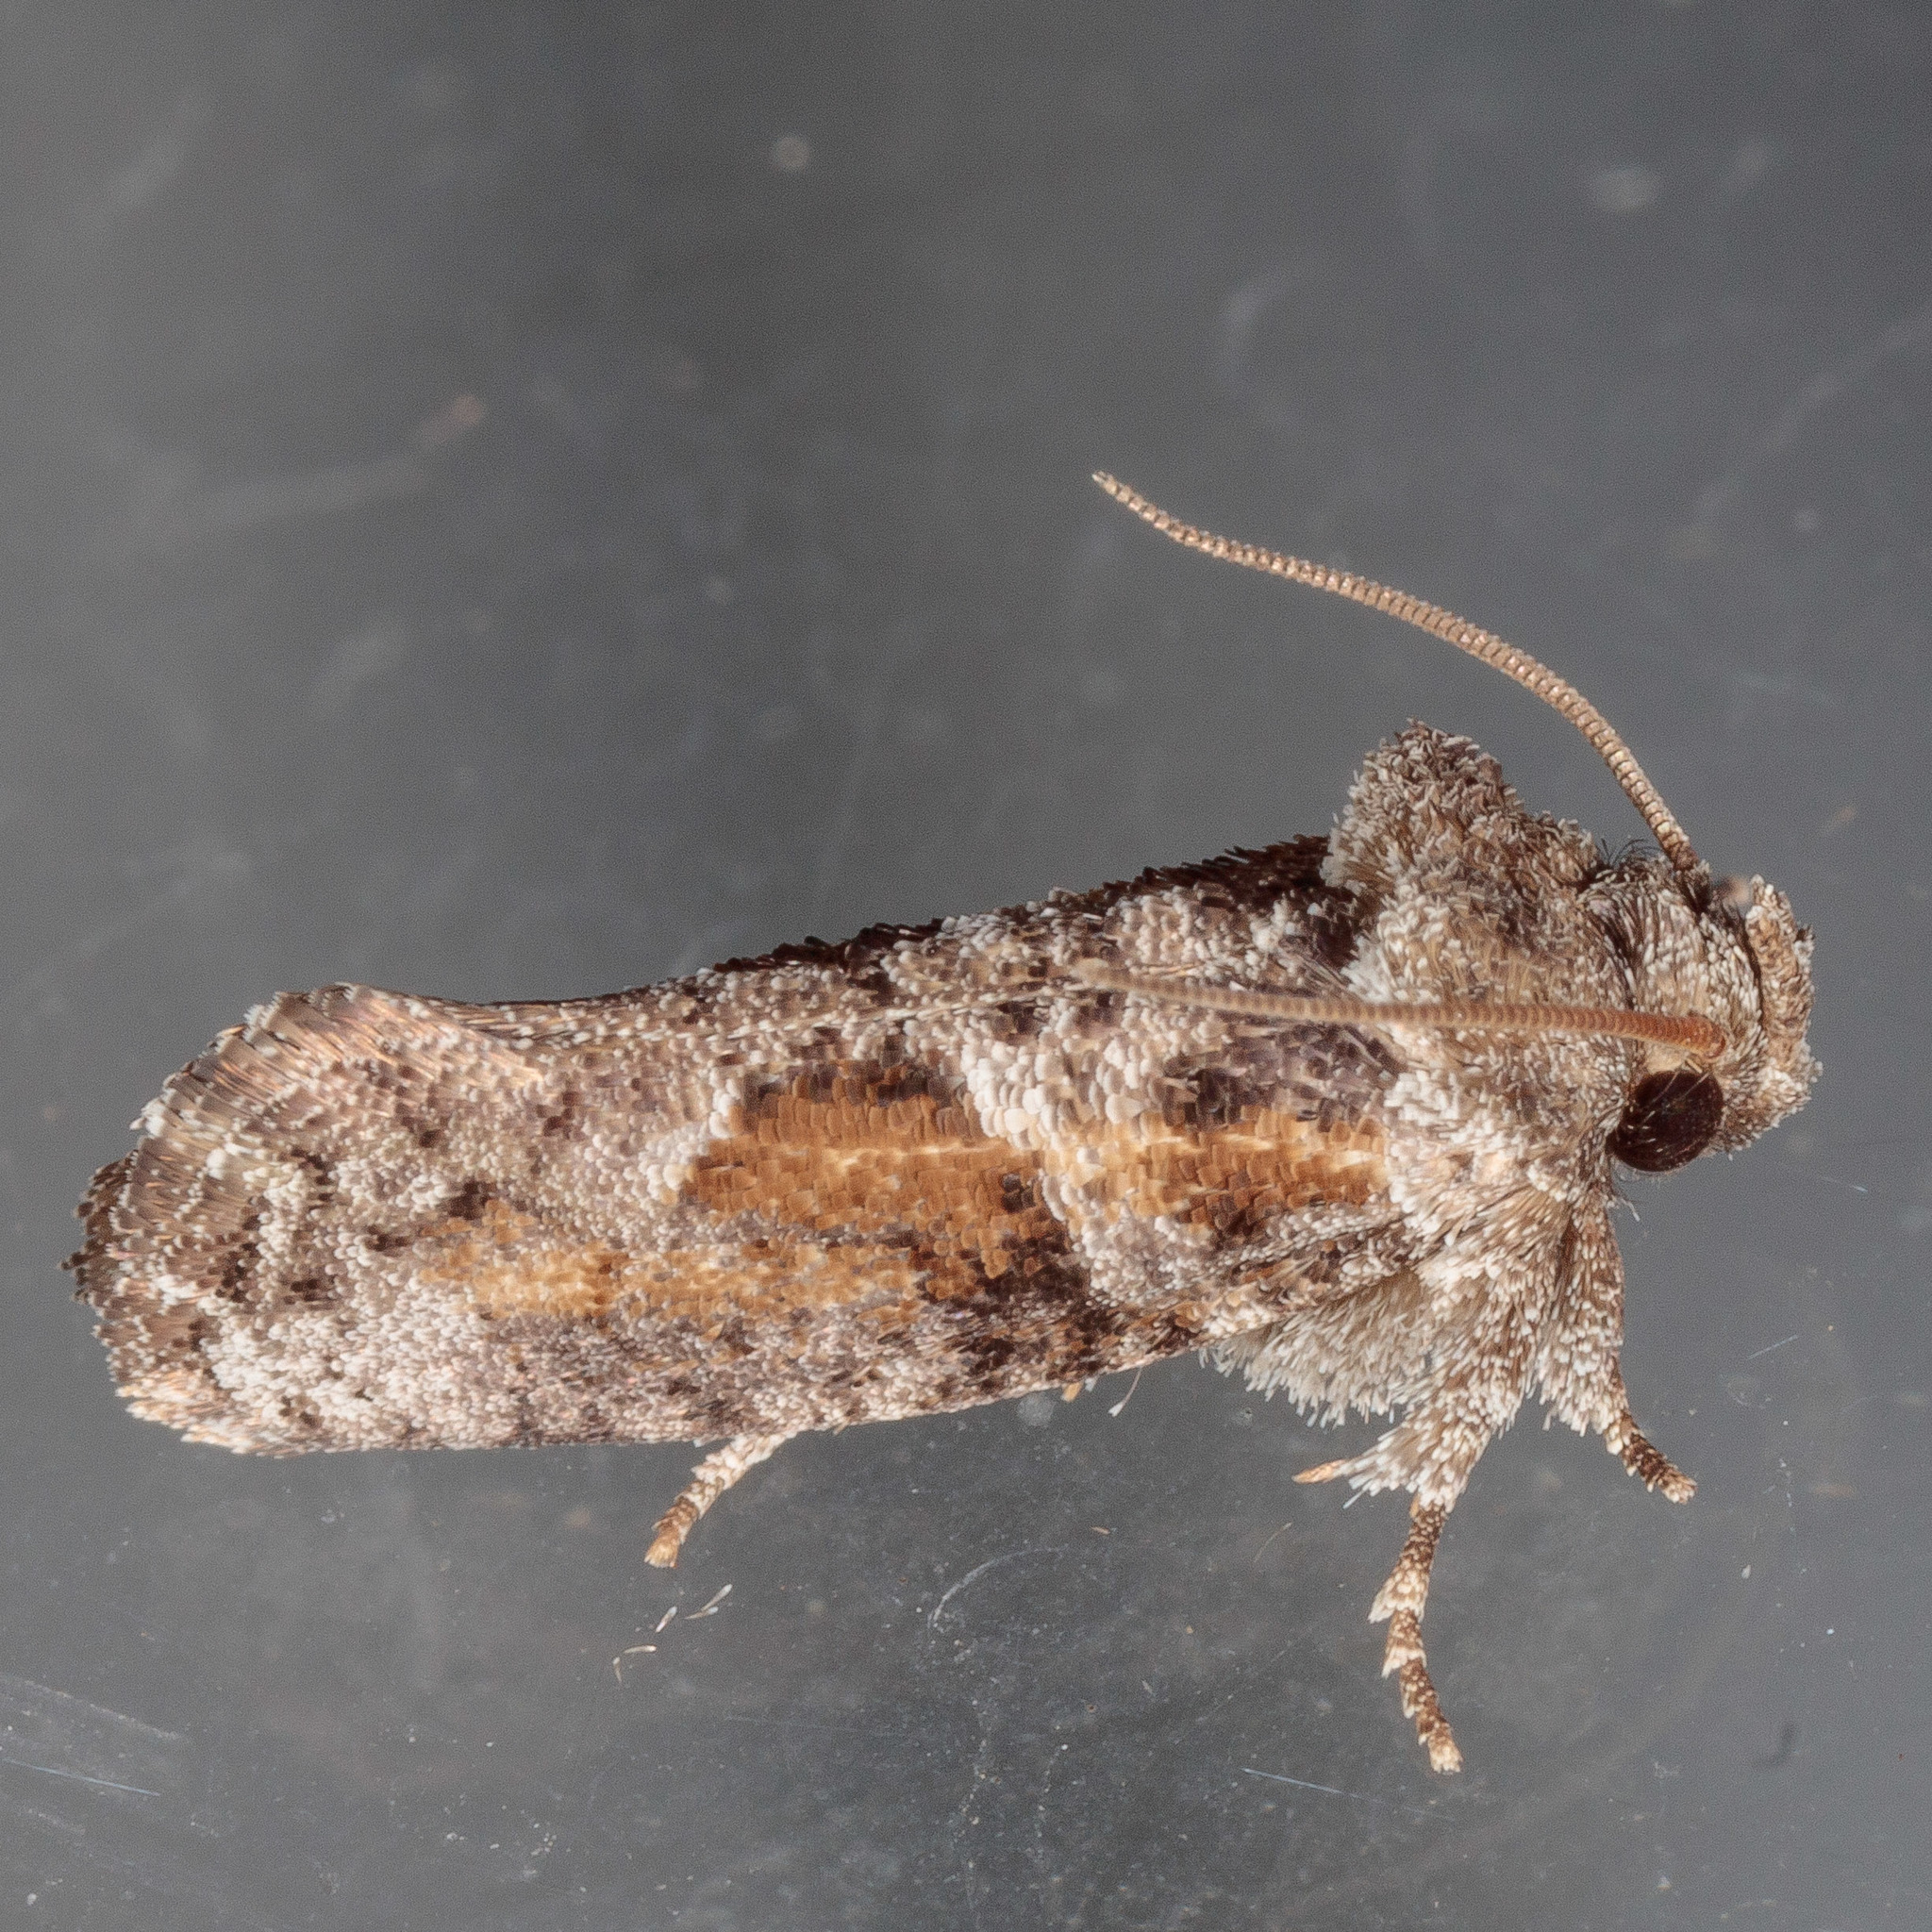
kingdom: Animalia
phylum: Arthropoda
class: Insecta
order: Lepidoptera
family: Tineidae
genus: Acrolophus
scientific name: Acrolophus piger
